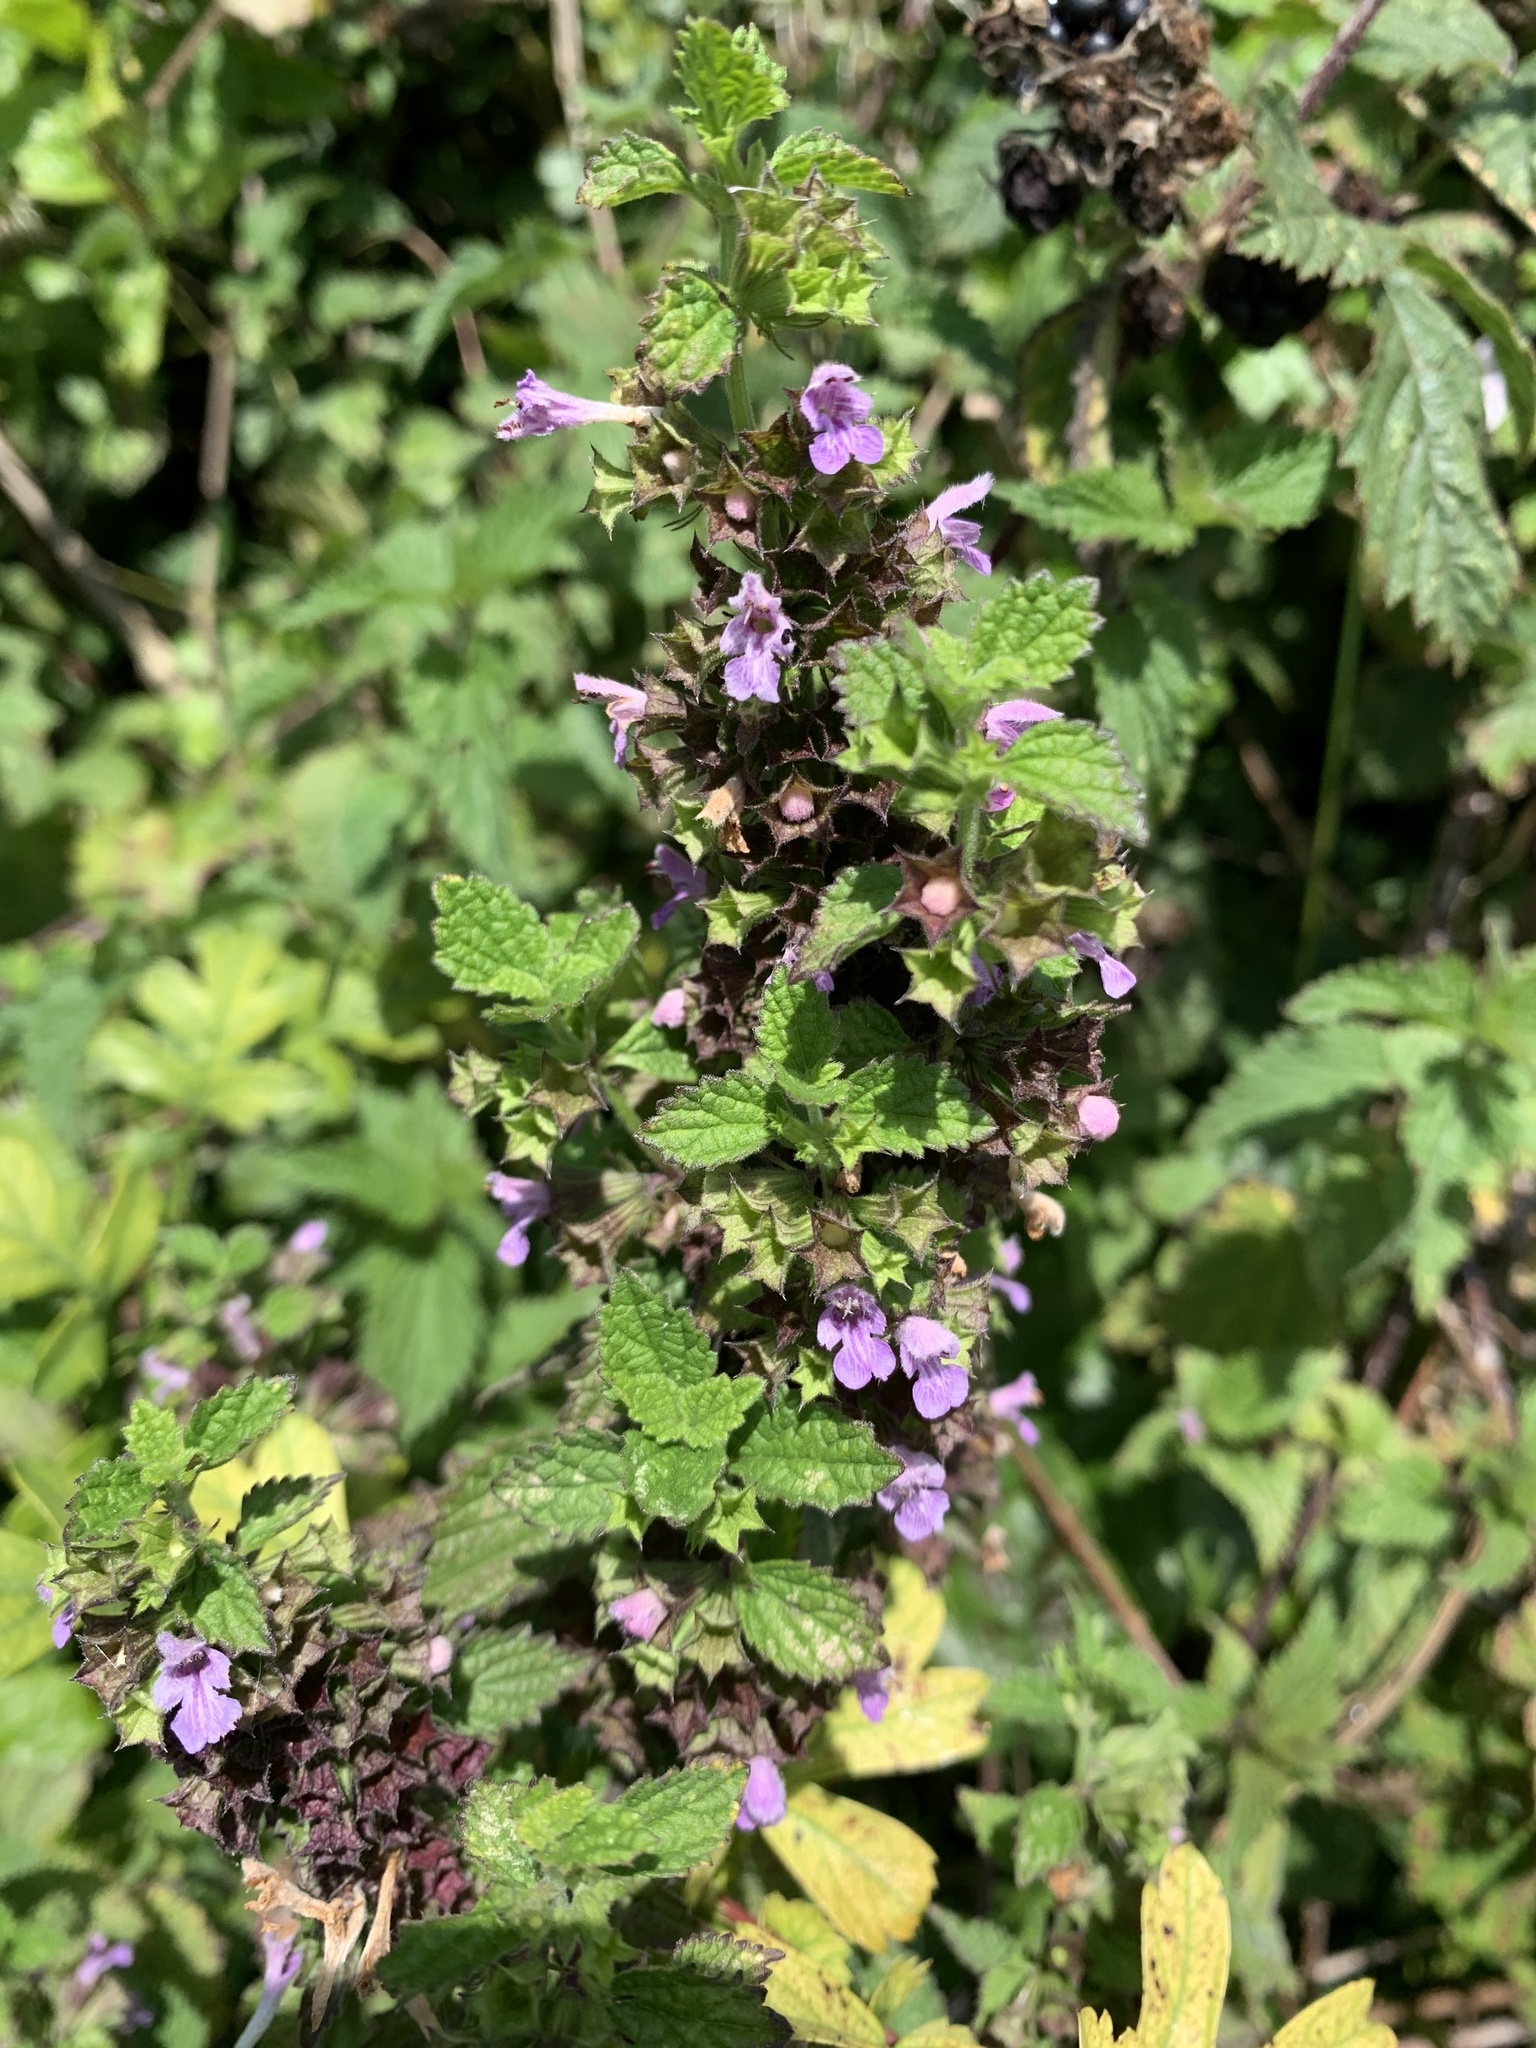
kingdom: Plantae
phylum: Tracheophyta
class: Magnoliopsida
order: Lamiales
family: Lamiaceae
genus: Ballota
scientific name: Ballota nigra
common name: Black horehound
